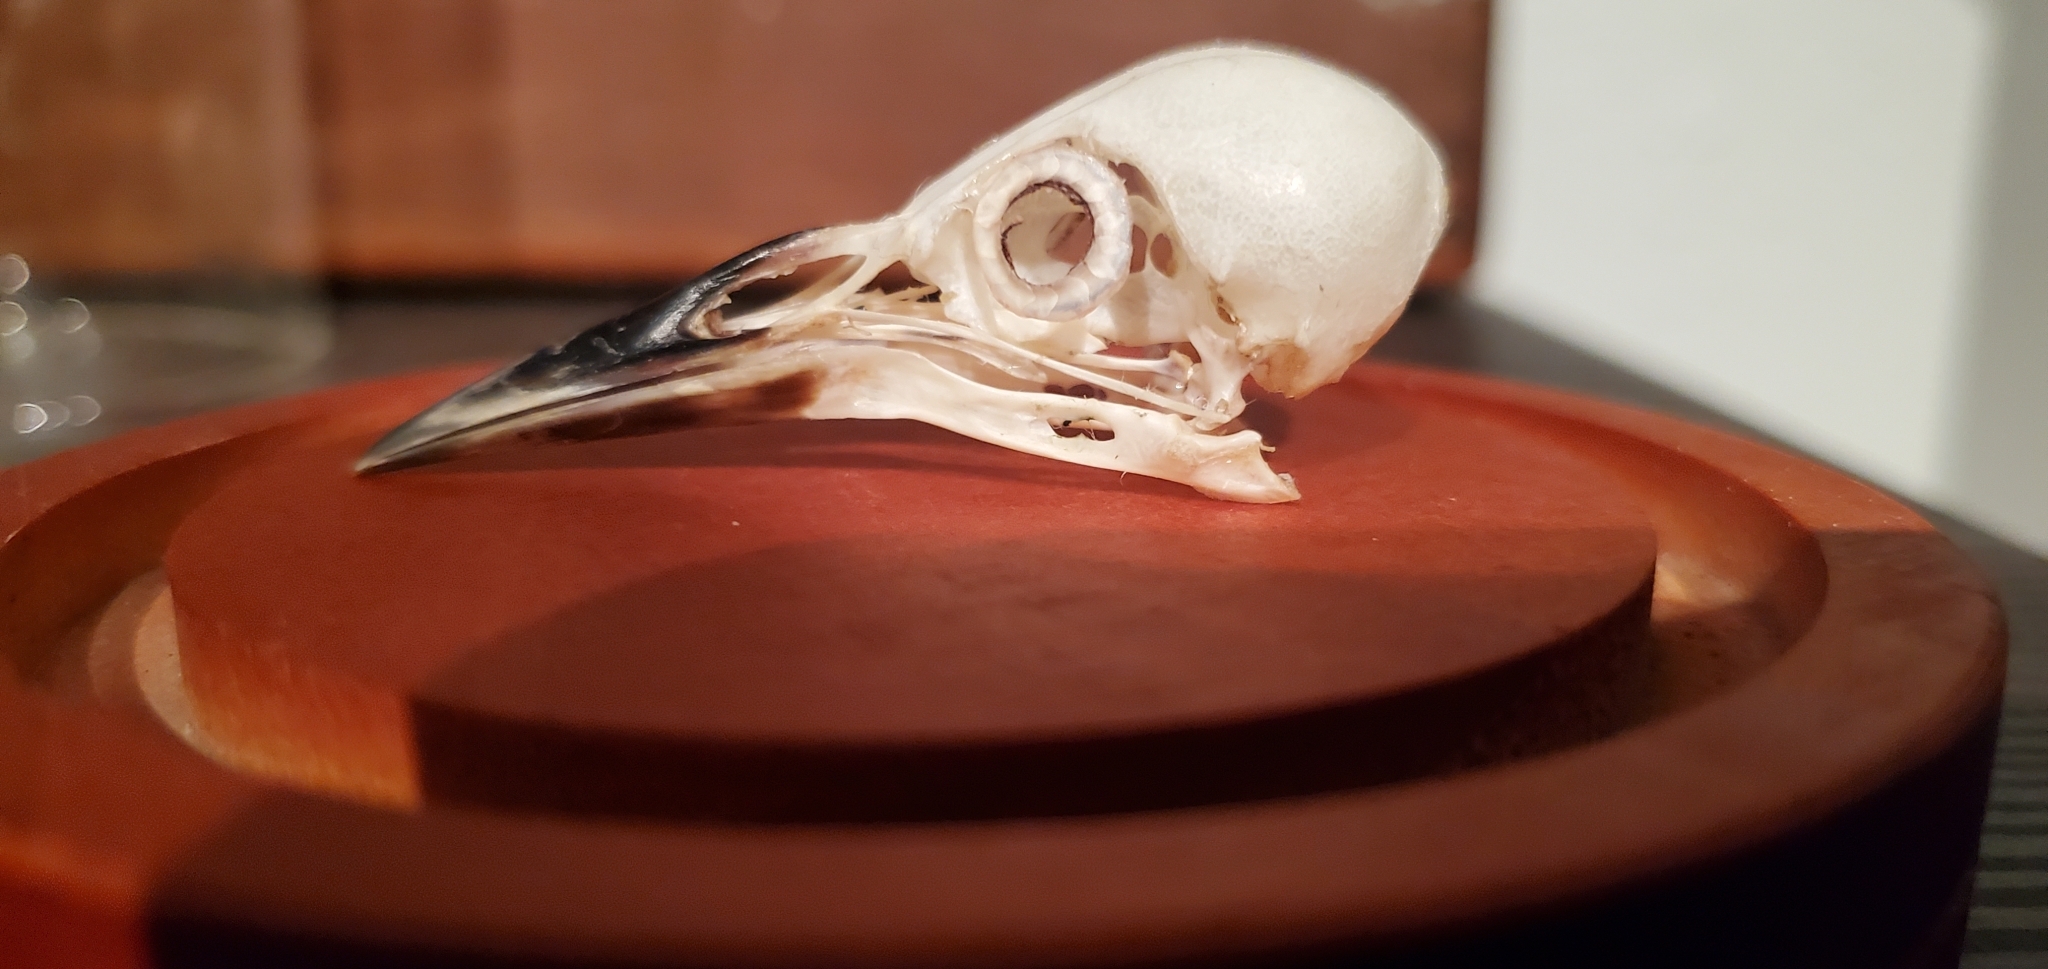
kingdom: Animalia
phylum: Chordata
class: Aves
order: Passeriformes
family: Sturnidae
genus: Sturnus
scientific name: Sturnus vulgaris
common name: Common starling
